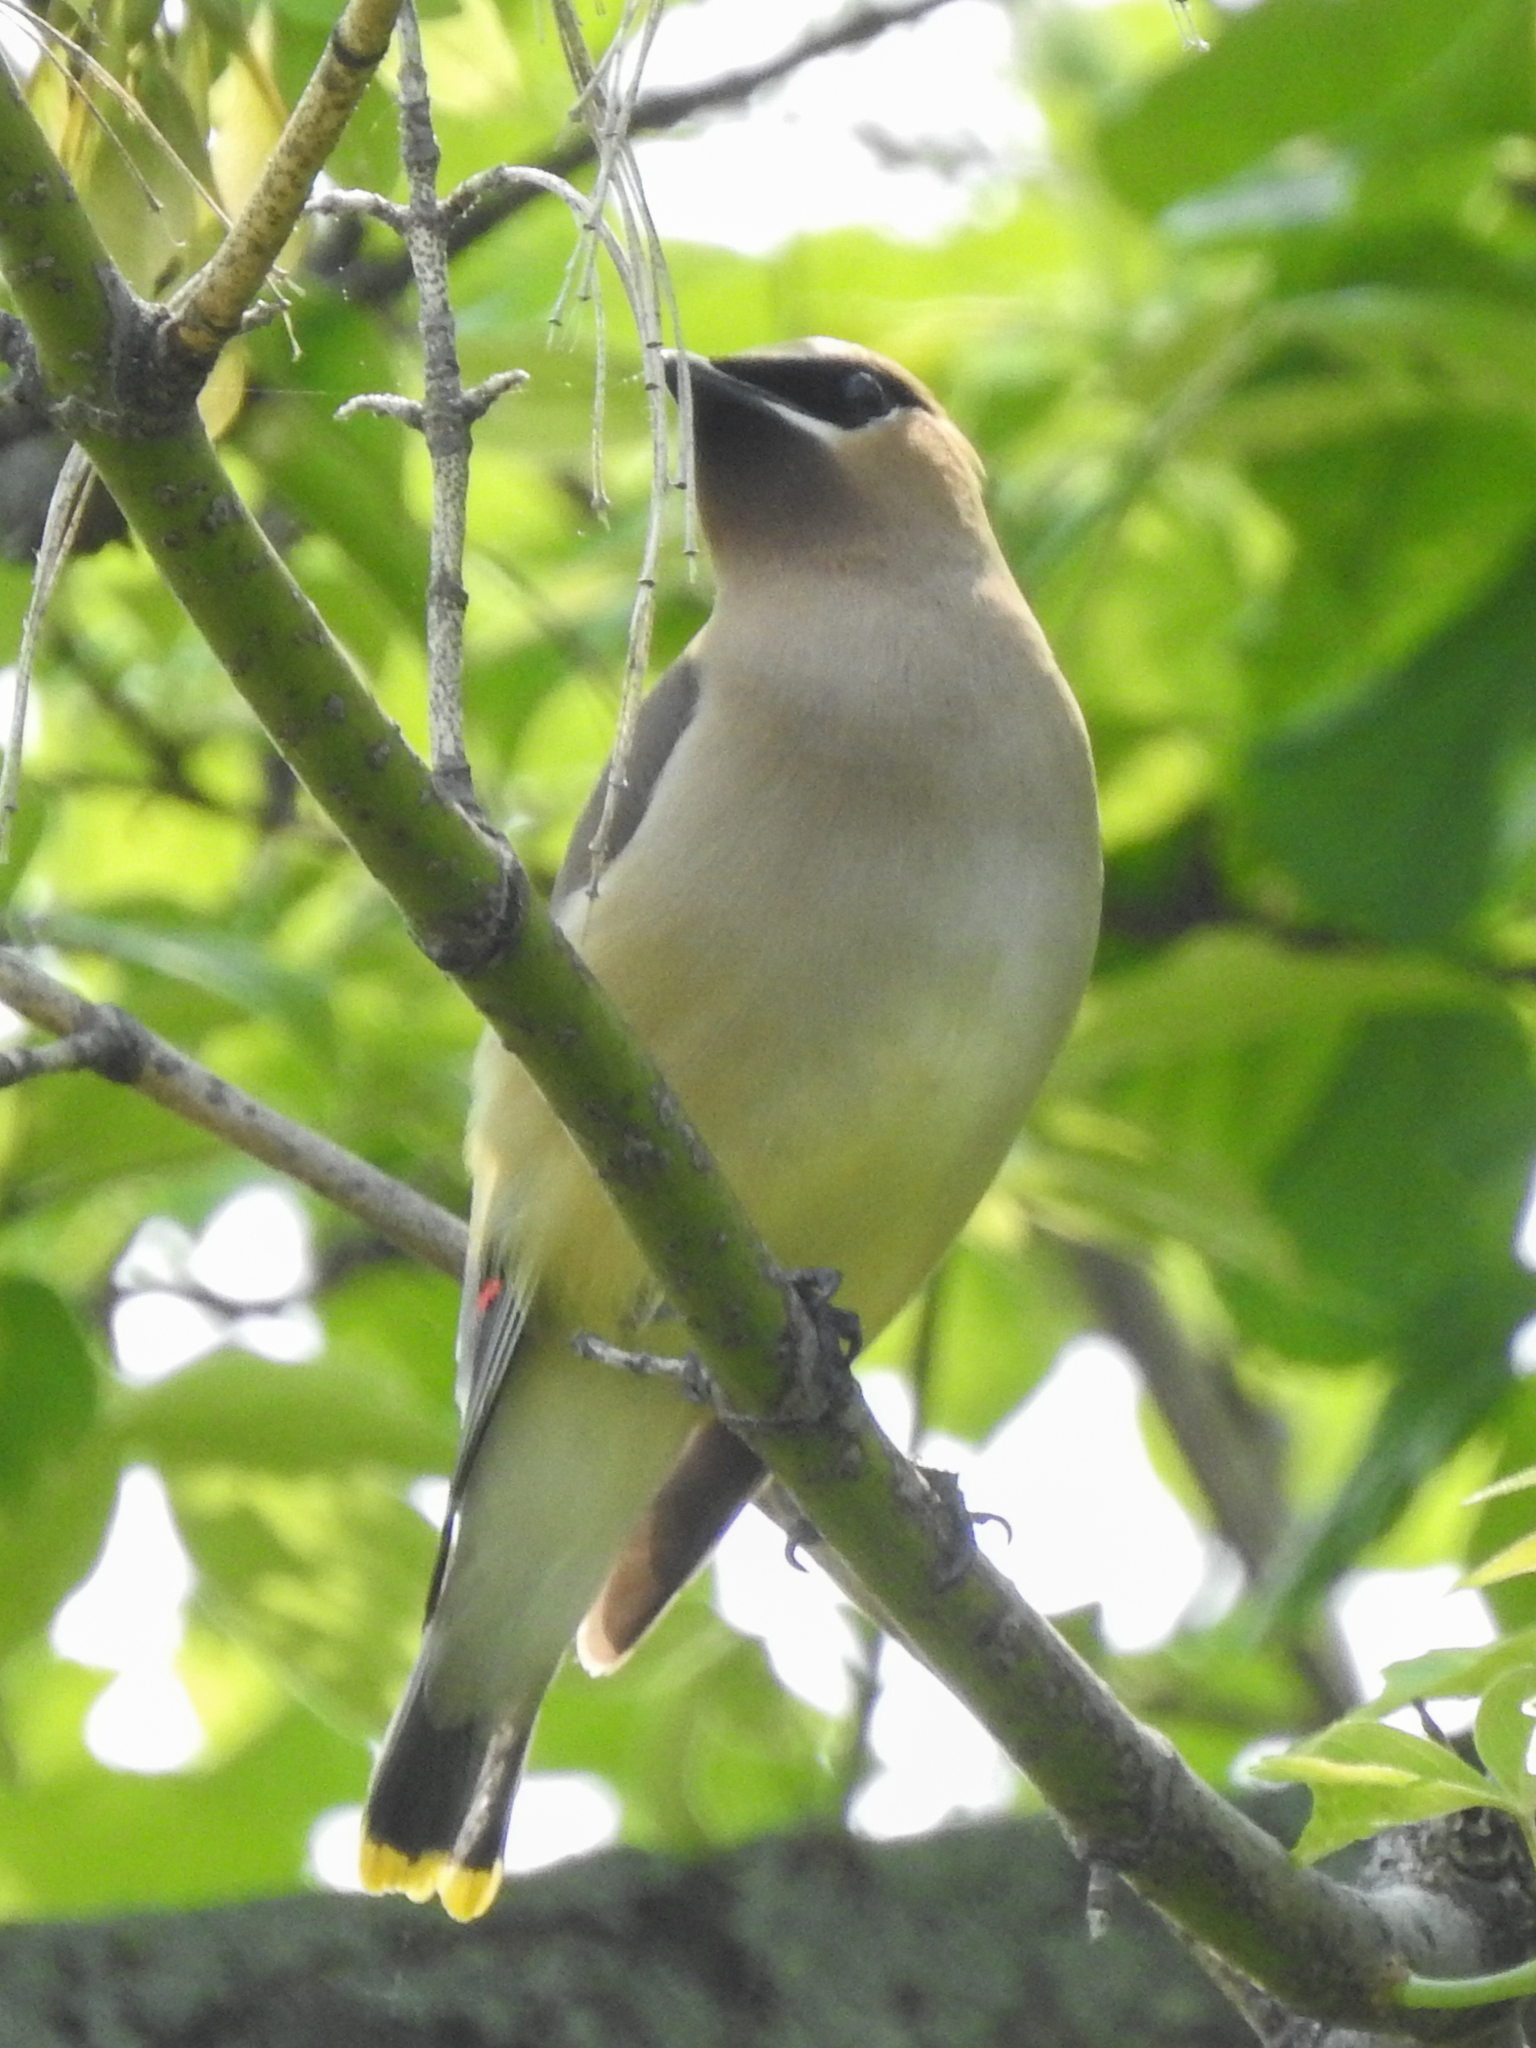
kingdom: Animalia
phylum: Chordata
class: Aves
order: Passeriformes
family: Bombycillidae
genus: Bombycilla
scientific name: Bombycilla cedrorum
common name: Cedar waxwing
